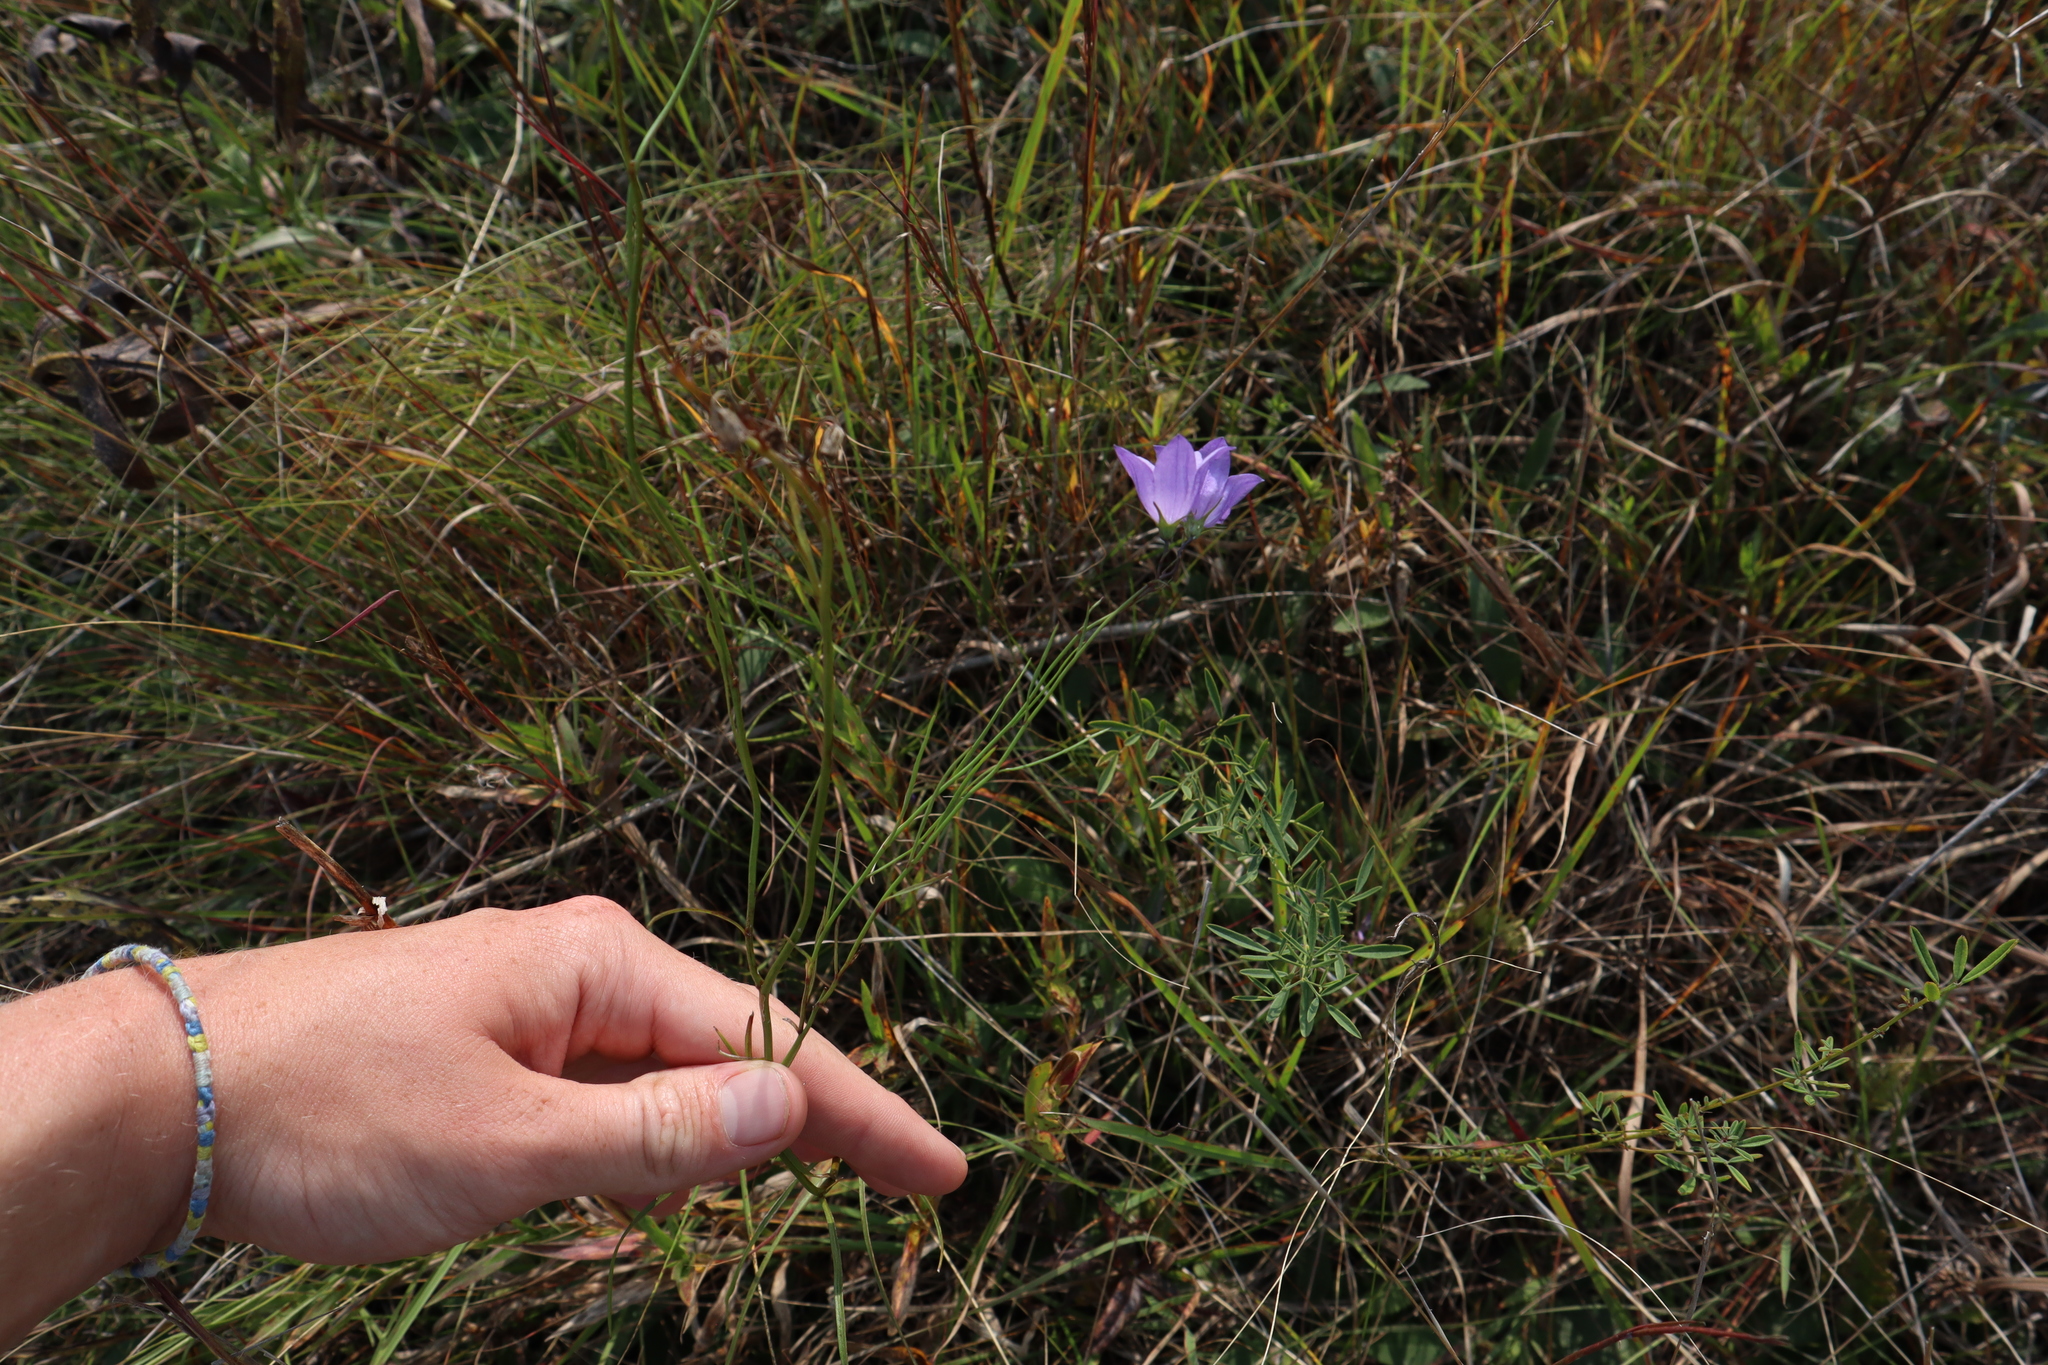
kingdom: Plantae
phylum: Tracheophyta
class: Magnoliopsida
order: Asterales
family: Campanulaceae
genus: Campanula
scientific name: Campanula intercedens
